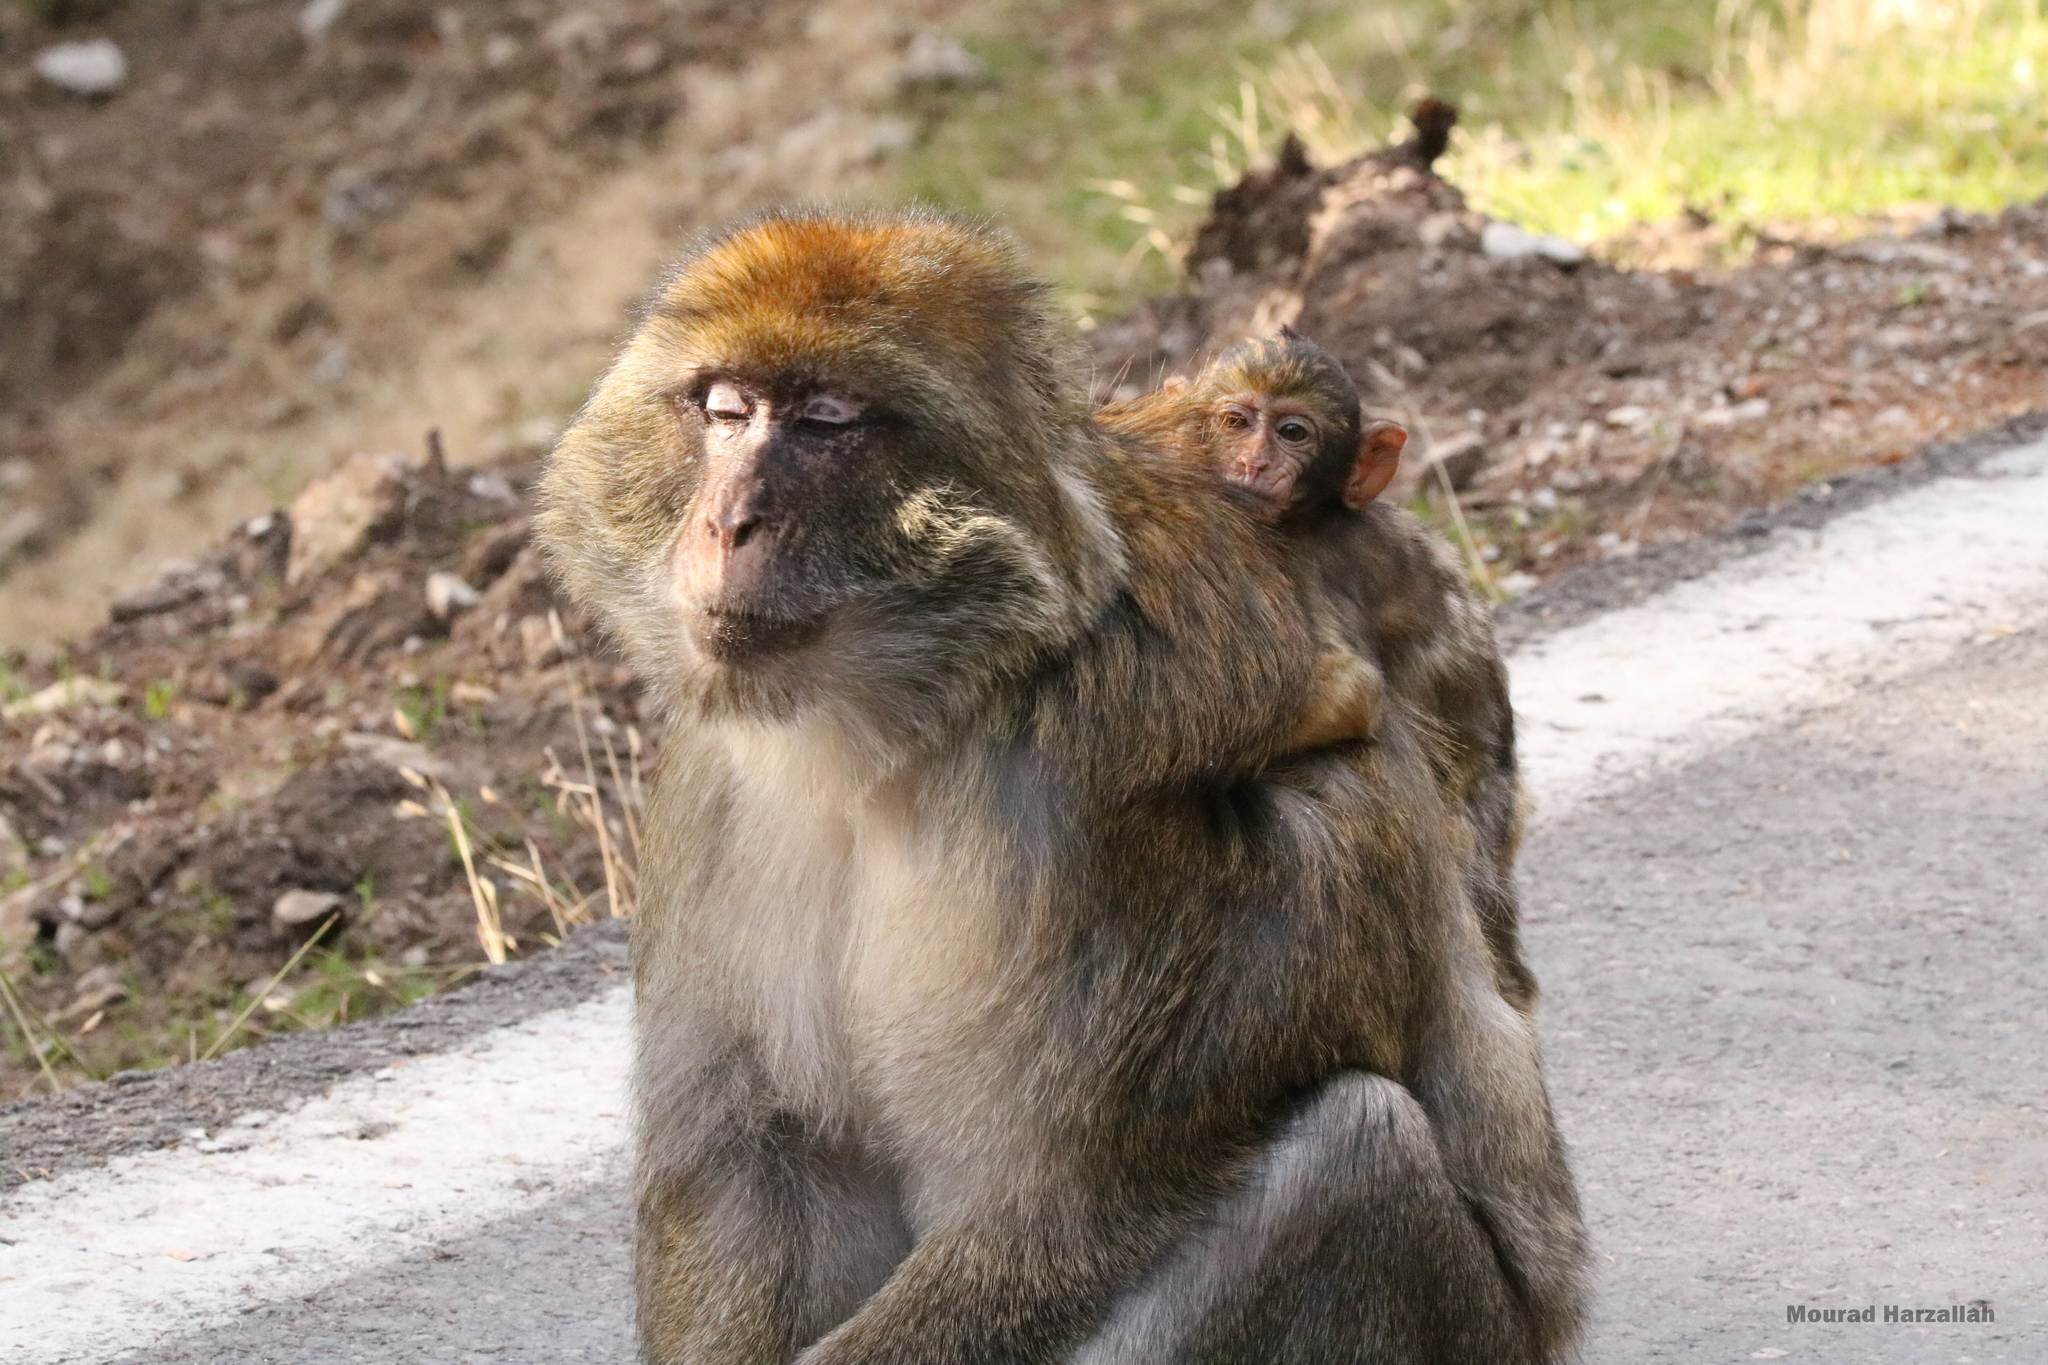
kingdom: Animalia
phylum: Chordata
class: Mammalia
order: Primates
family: Cercopithecidae
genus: Macaca
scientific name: Macaca sylvanus
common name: Barbary macaque
